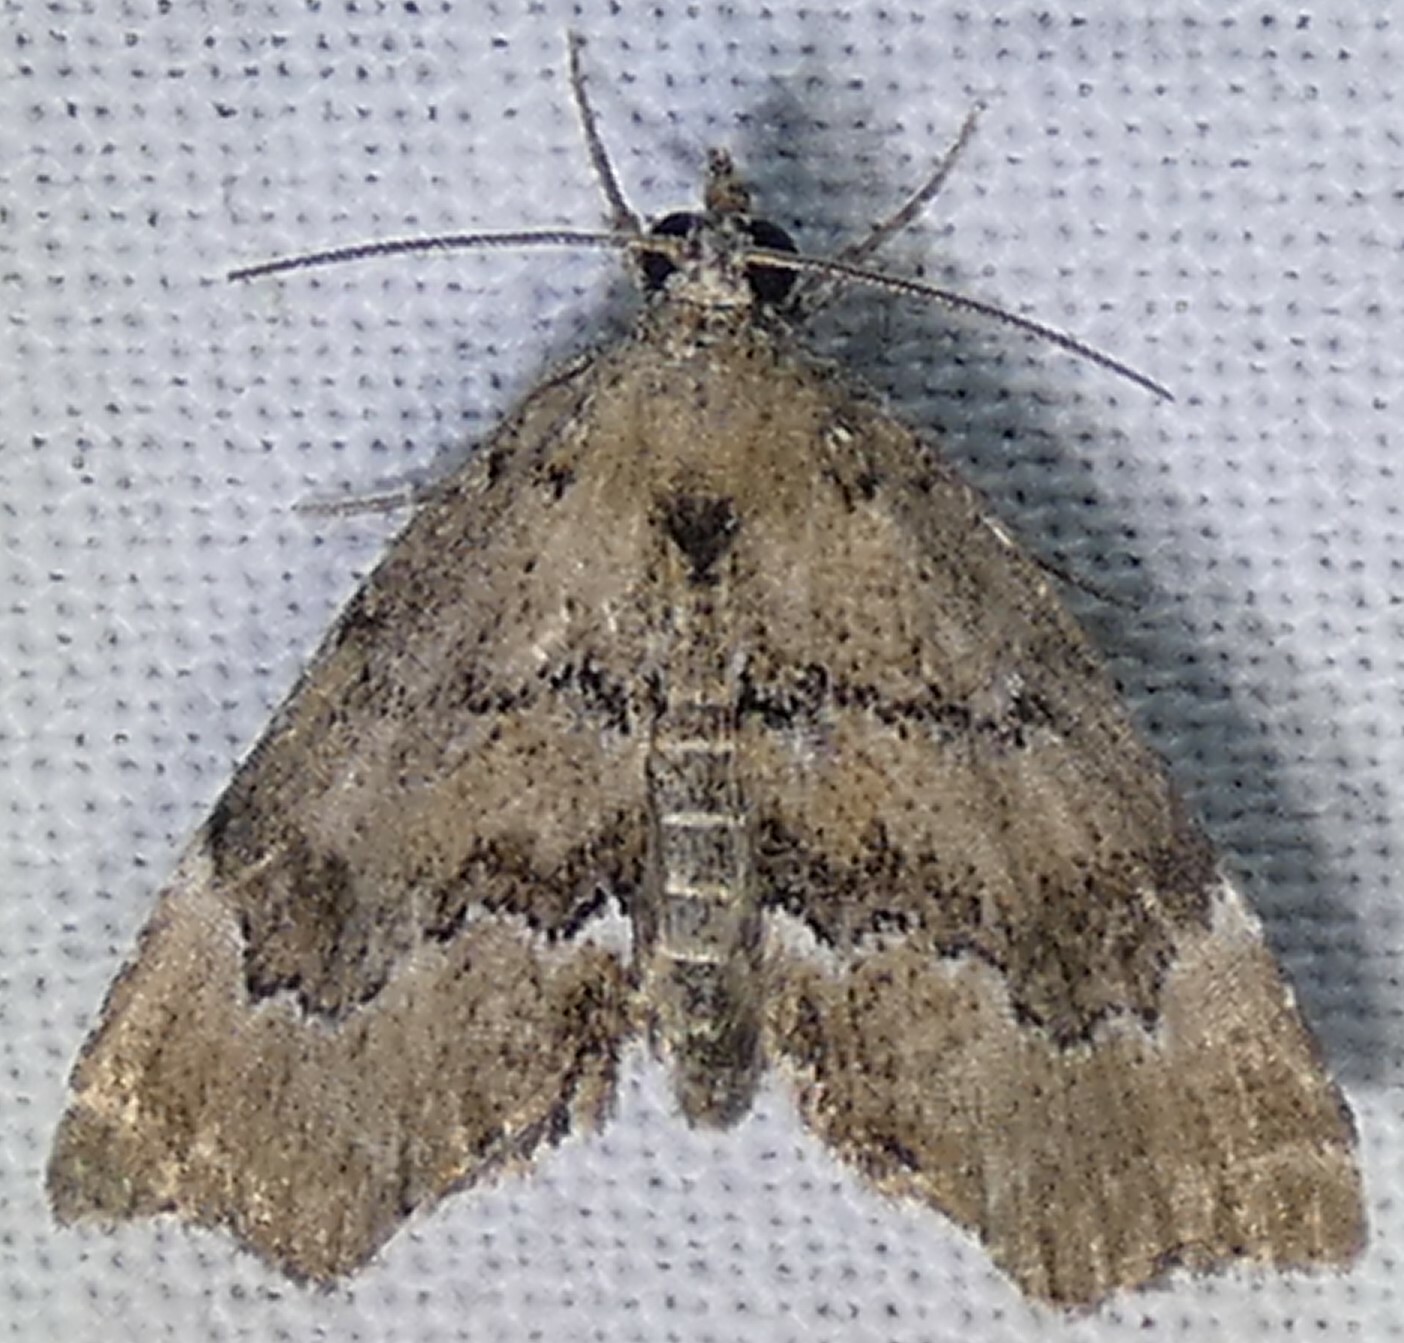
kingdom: Animalia
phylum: Arthropoda
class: Insecta
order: Lepidoptera
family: Erebidae
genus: Cutina
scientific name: Cutina aluticolor
